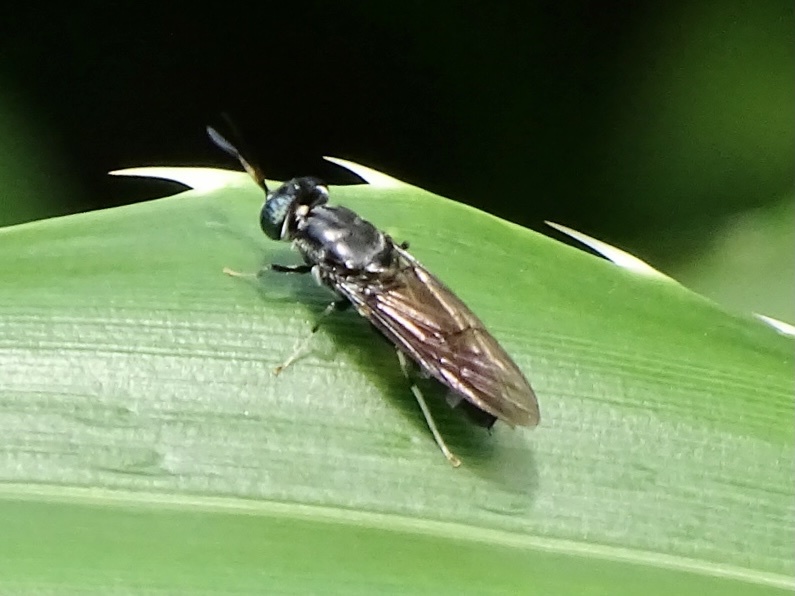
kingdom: Animalia
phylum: Arthropoda
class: Insecta
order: Diptera
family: Stratiomyidae
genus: Hermetia
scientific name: Hermetia illucens
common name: Black soldier fly
